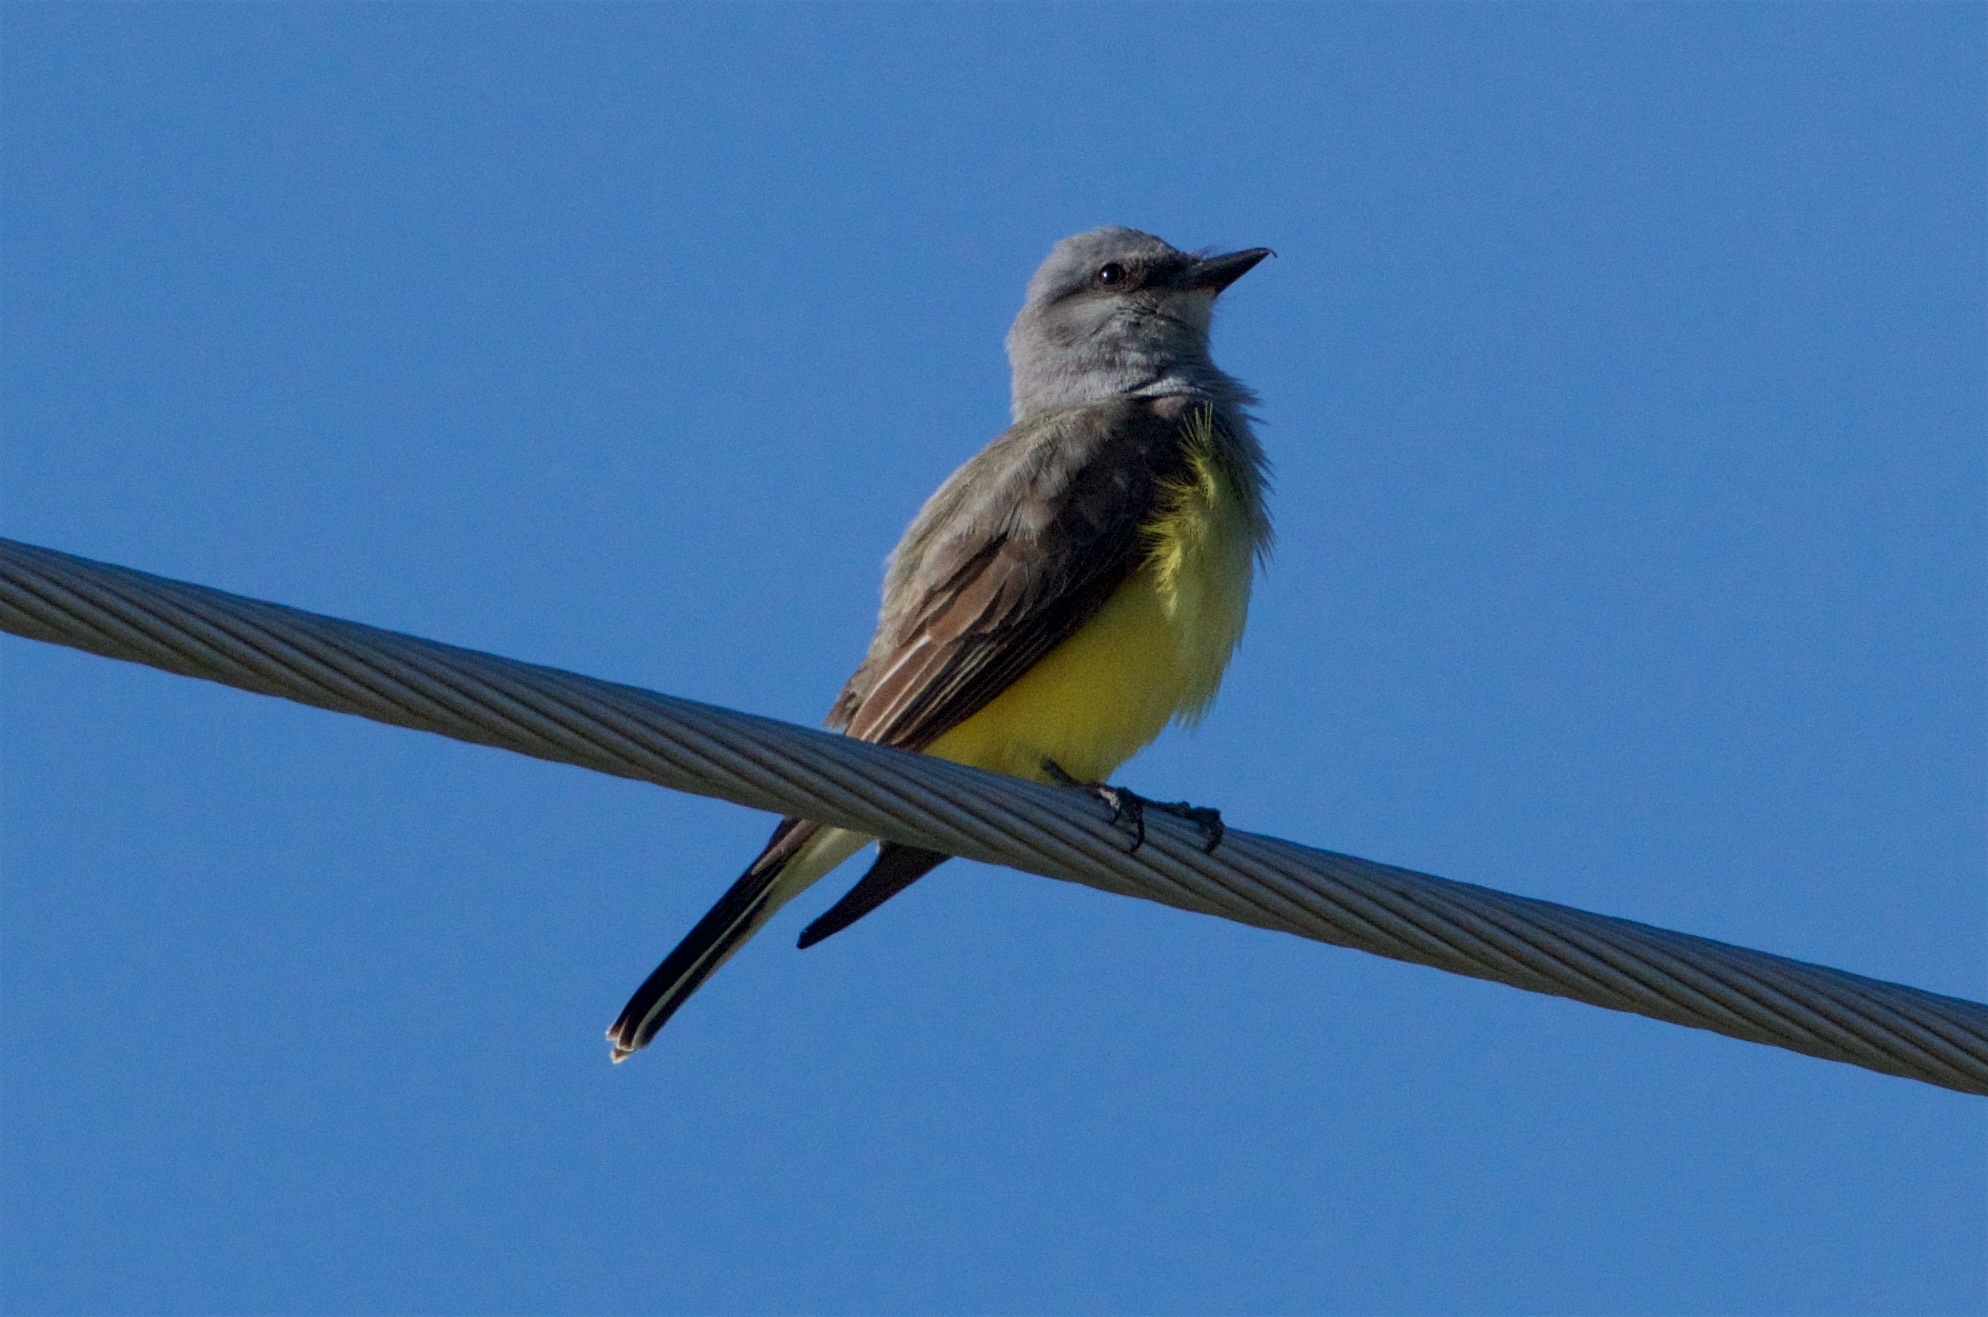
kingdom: Animalia
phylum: Chordata
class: Aves
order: Passeriformes
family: Tyrannidae
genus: Tyrannus
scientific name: Tyrannus verticalis
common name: Western kingbird
